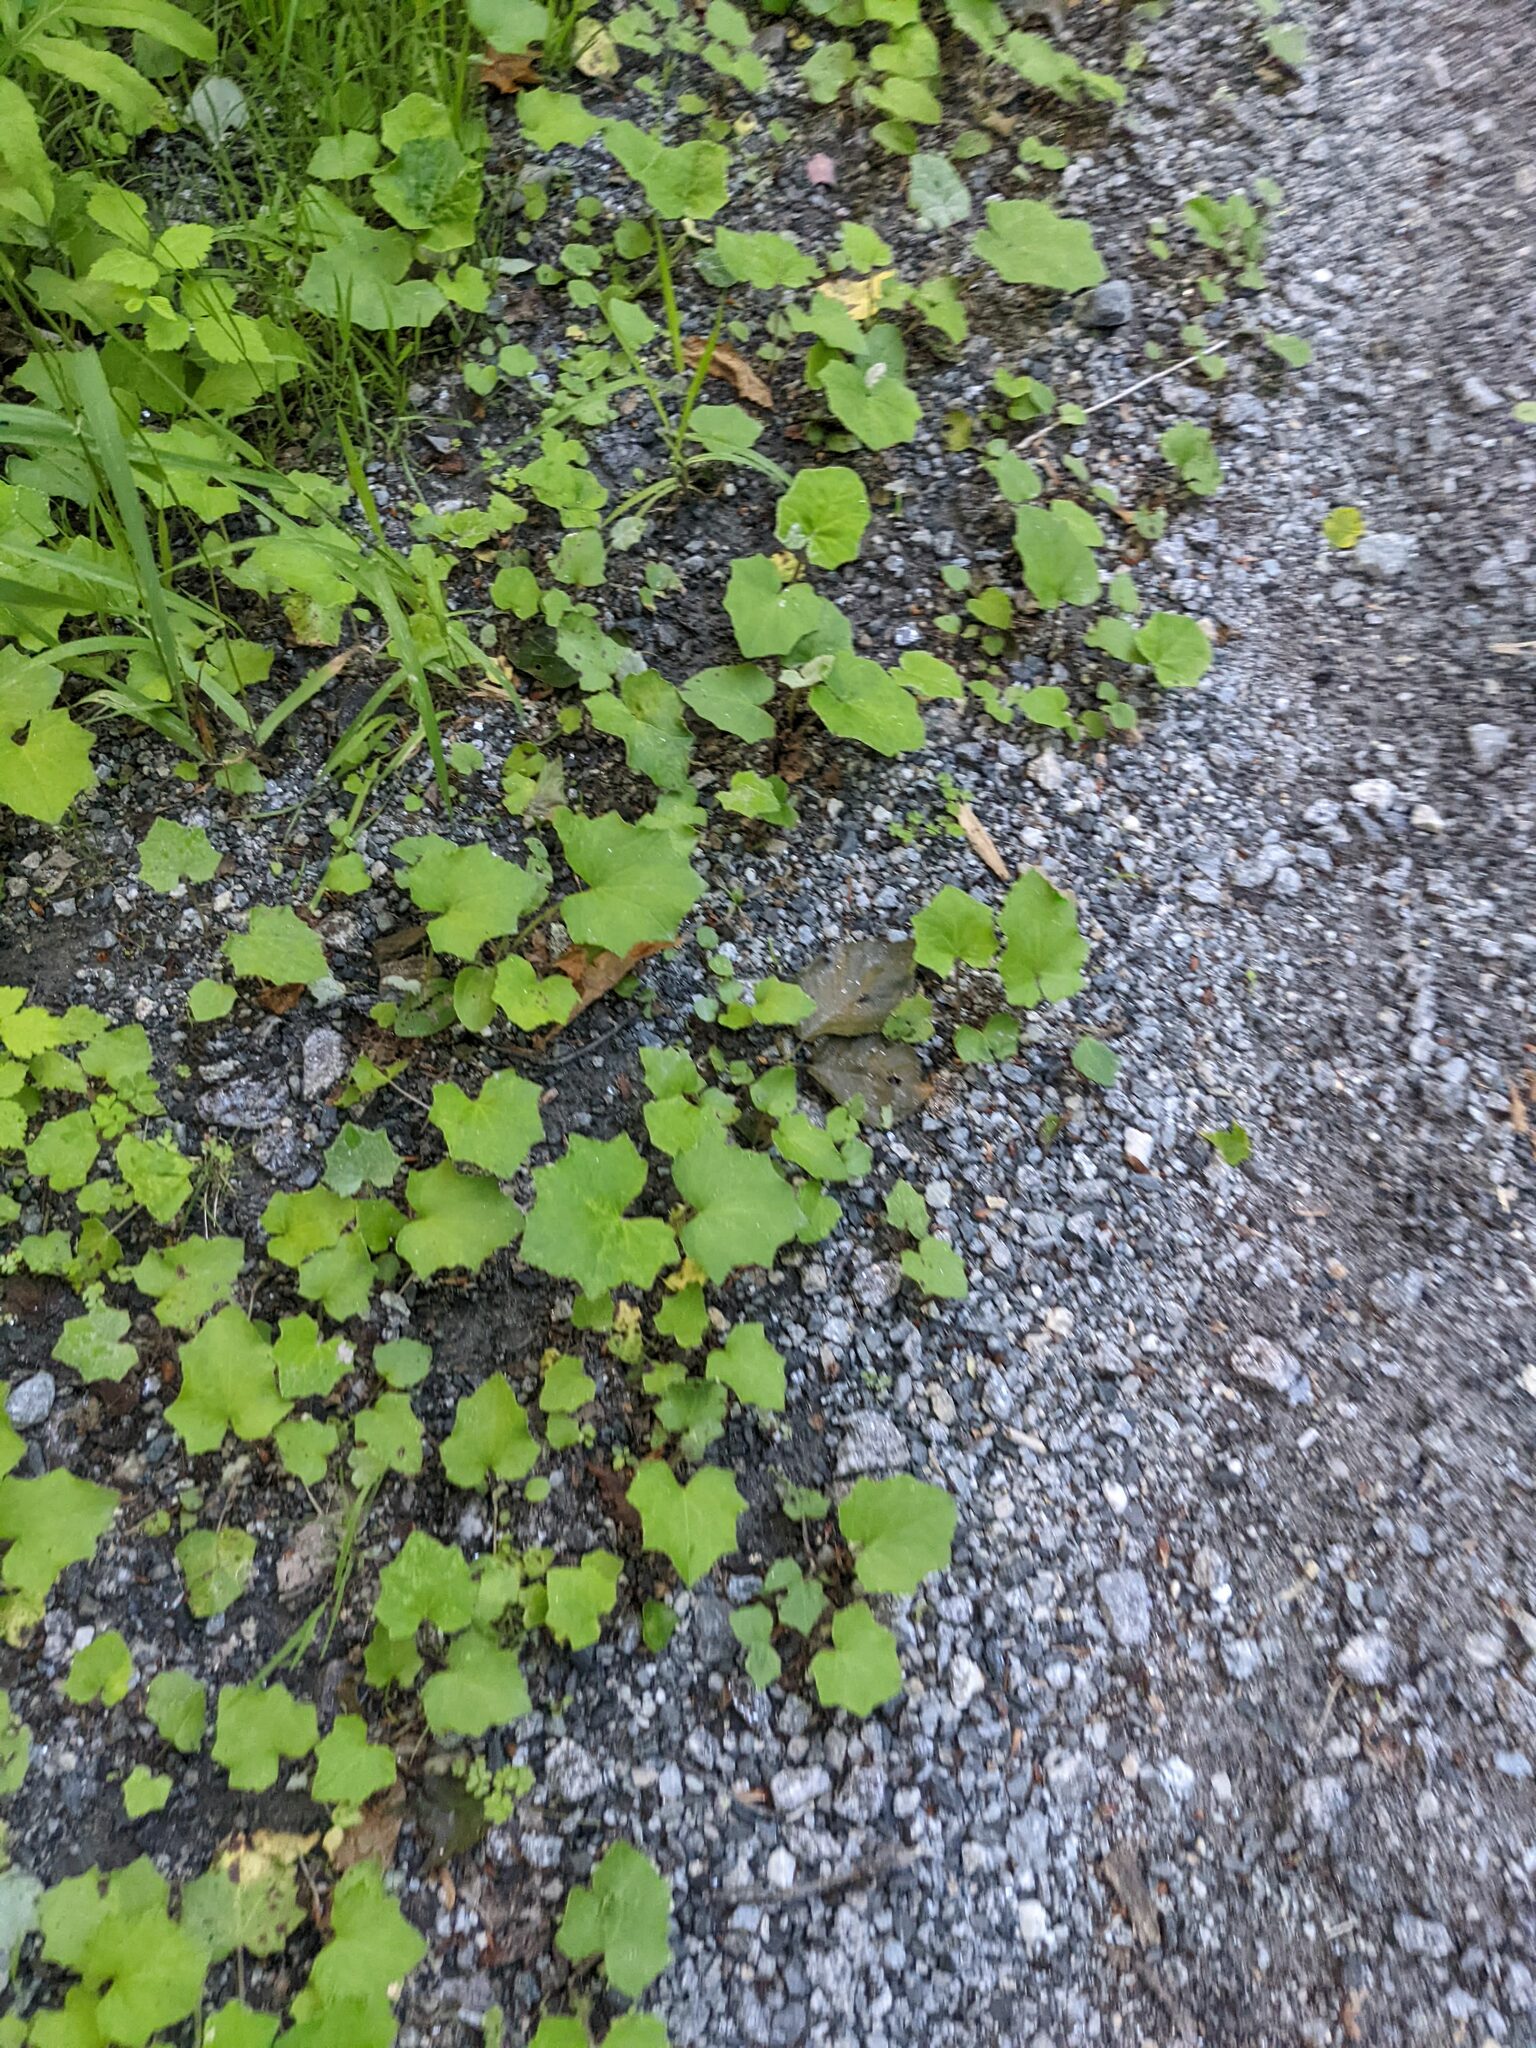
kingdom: Plantae
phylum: Tracheophyta
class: Magnoliopsida
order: Asterales
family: Asteraceae
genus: Tussilago
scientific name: Tussilago farfara
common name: Coltsfoot
